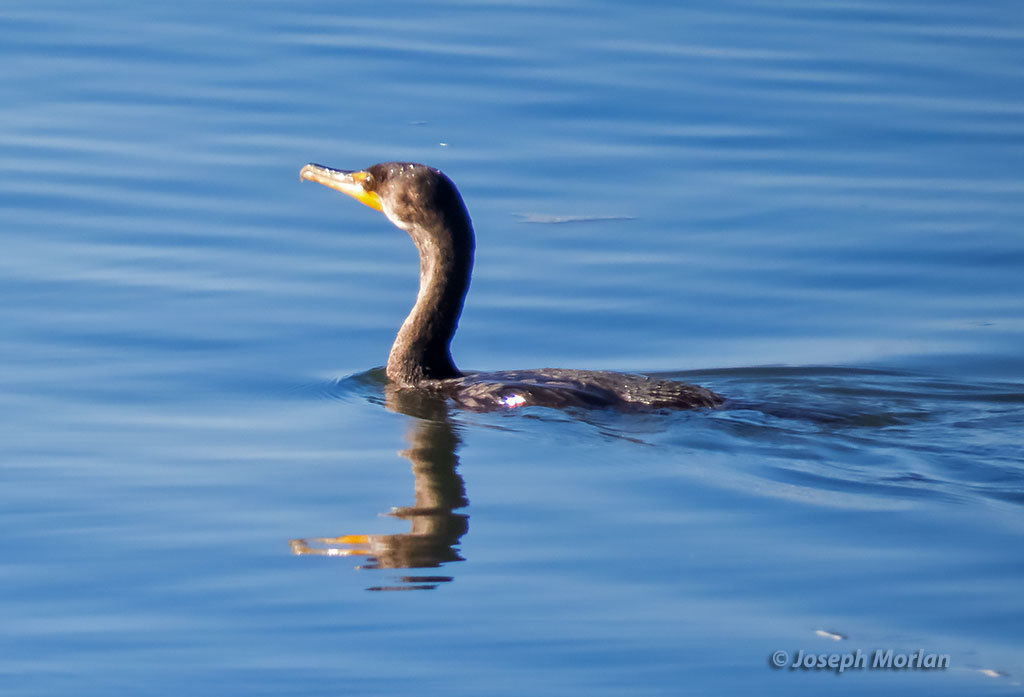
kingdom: Animalia
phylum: Chordata
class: Aves
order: Suliformes
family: Phalacrocoracidae
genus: Phalacrocorax
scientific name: Phalacrocorax auritus
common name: Double-crested cormorant
